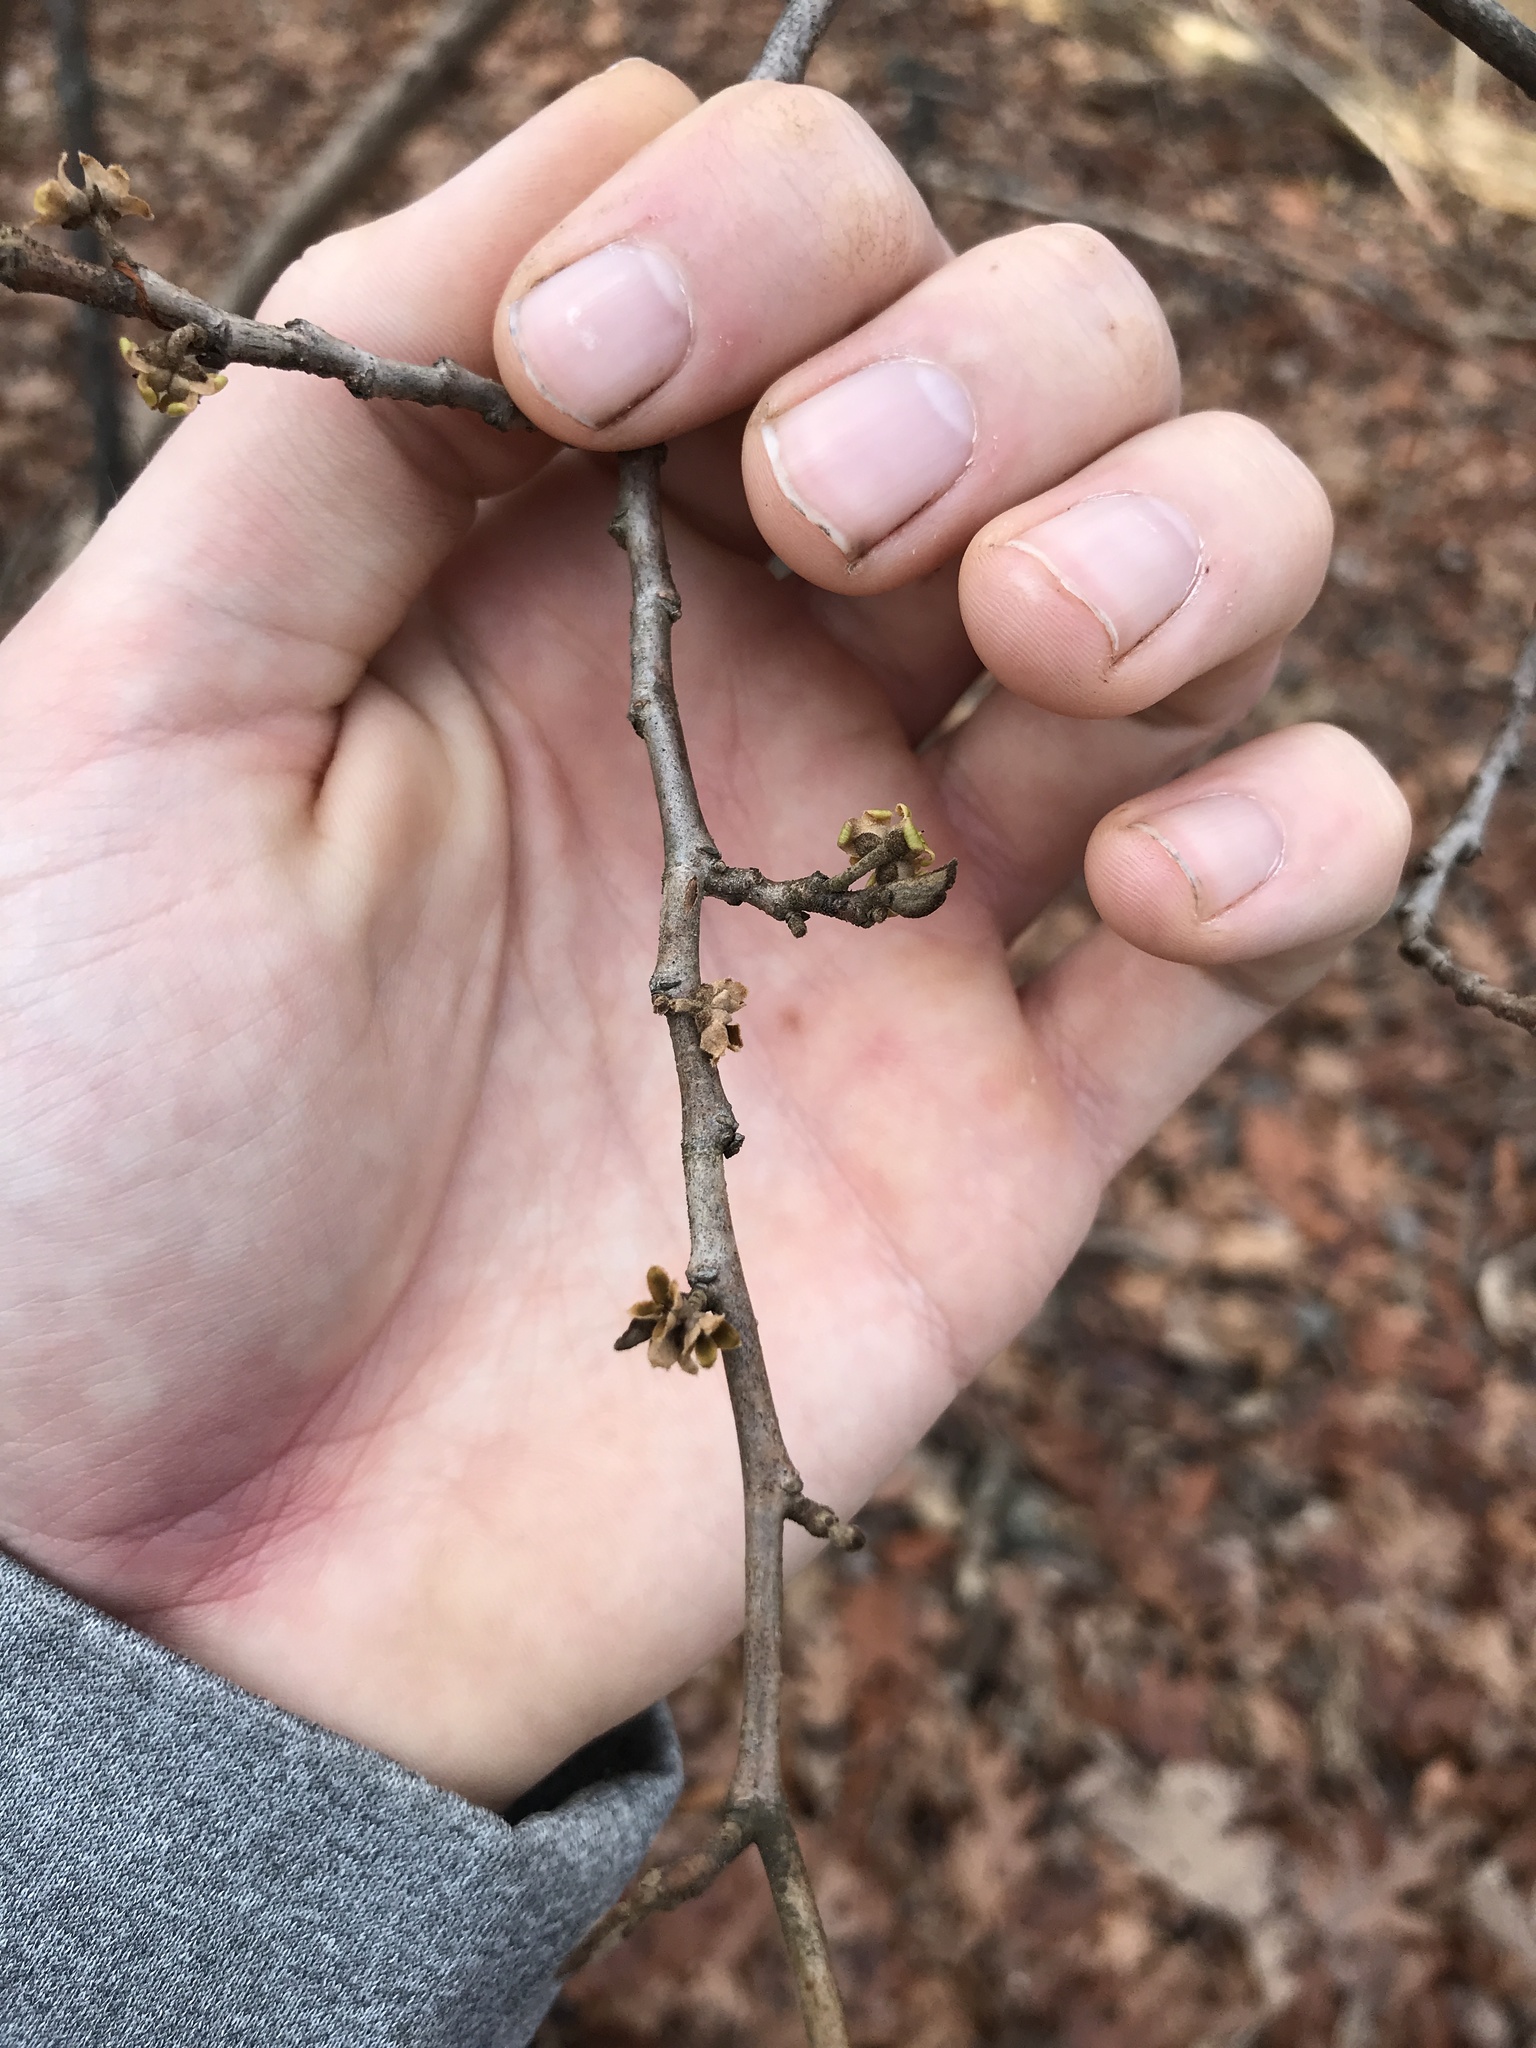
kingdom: Plantae
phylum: Tracheophyta
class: Magnoliopsida
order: Saxifragales
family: Hamamelidaceae
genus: Hamamelis
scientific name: Hamamelis virginiana
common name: Witch-hazel
